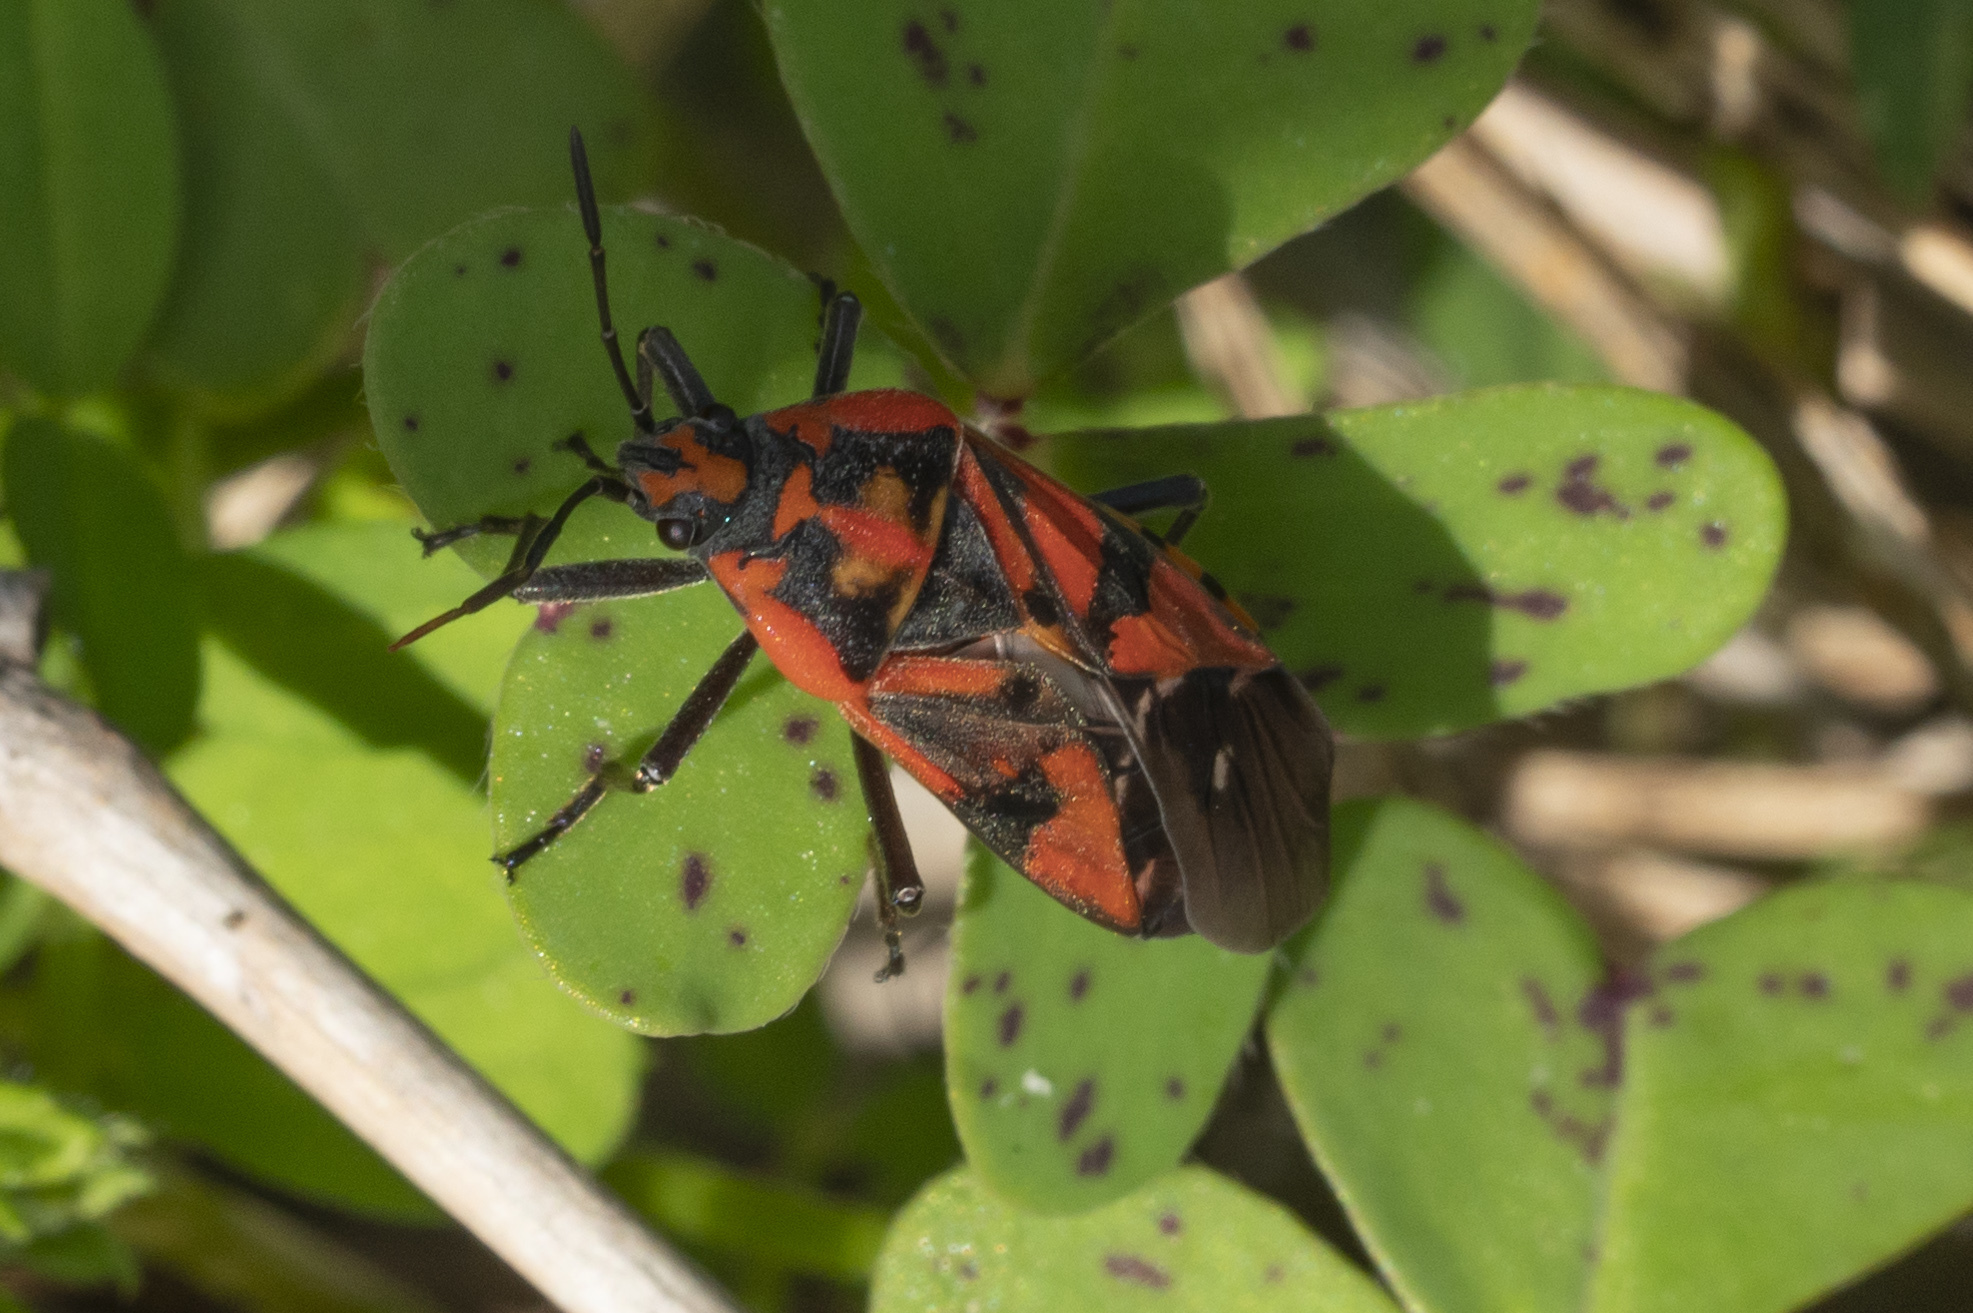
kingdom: Animalia
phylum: Arthropoda
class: Insecta
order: Hemiptera
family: Lygaeidae
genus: Spilostethus
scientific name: Spilostethus pandurus
